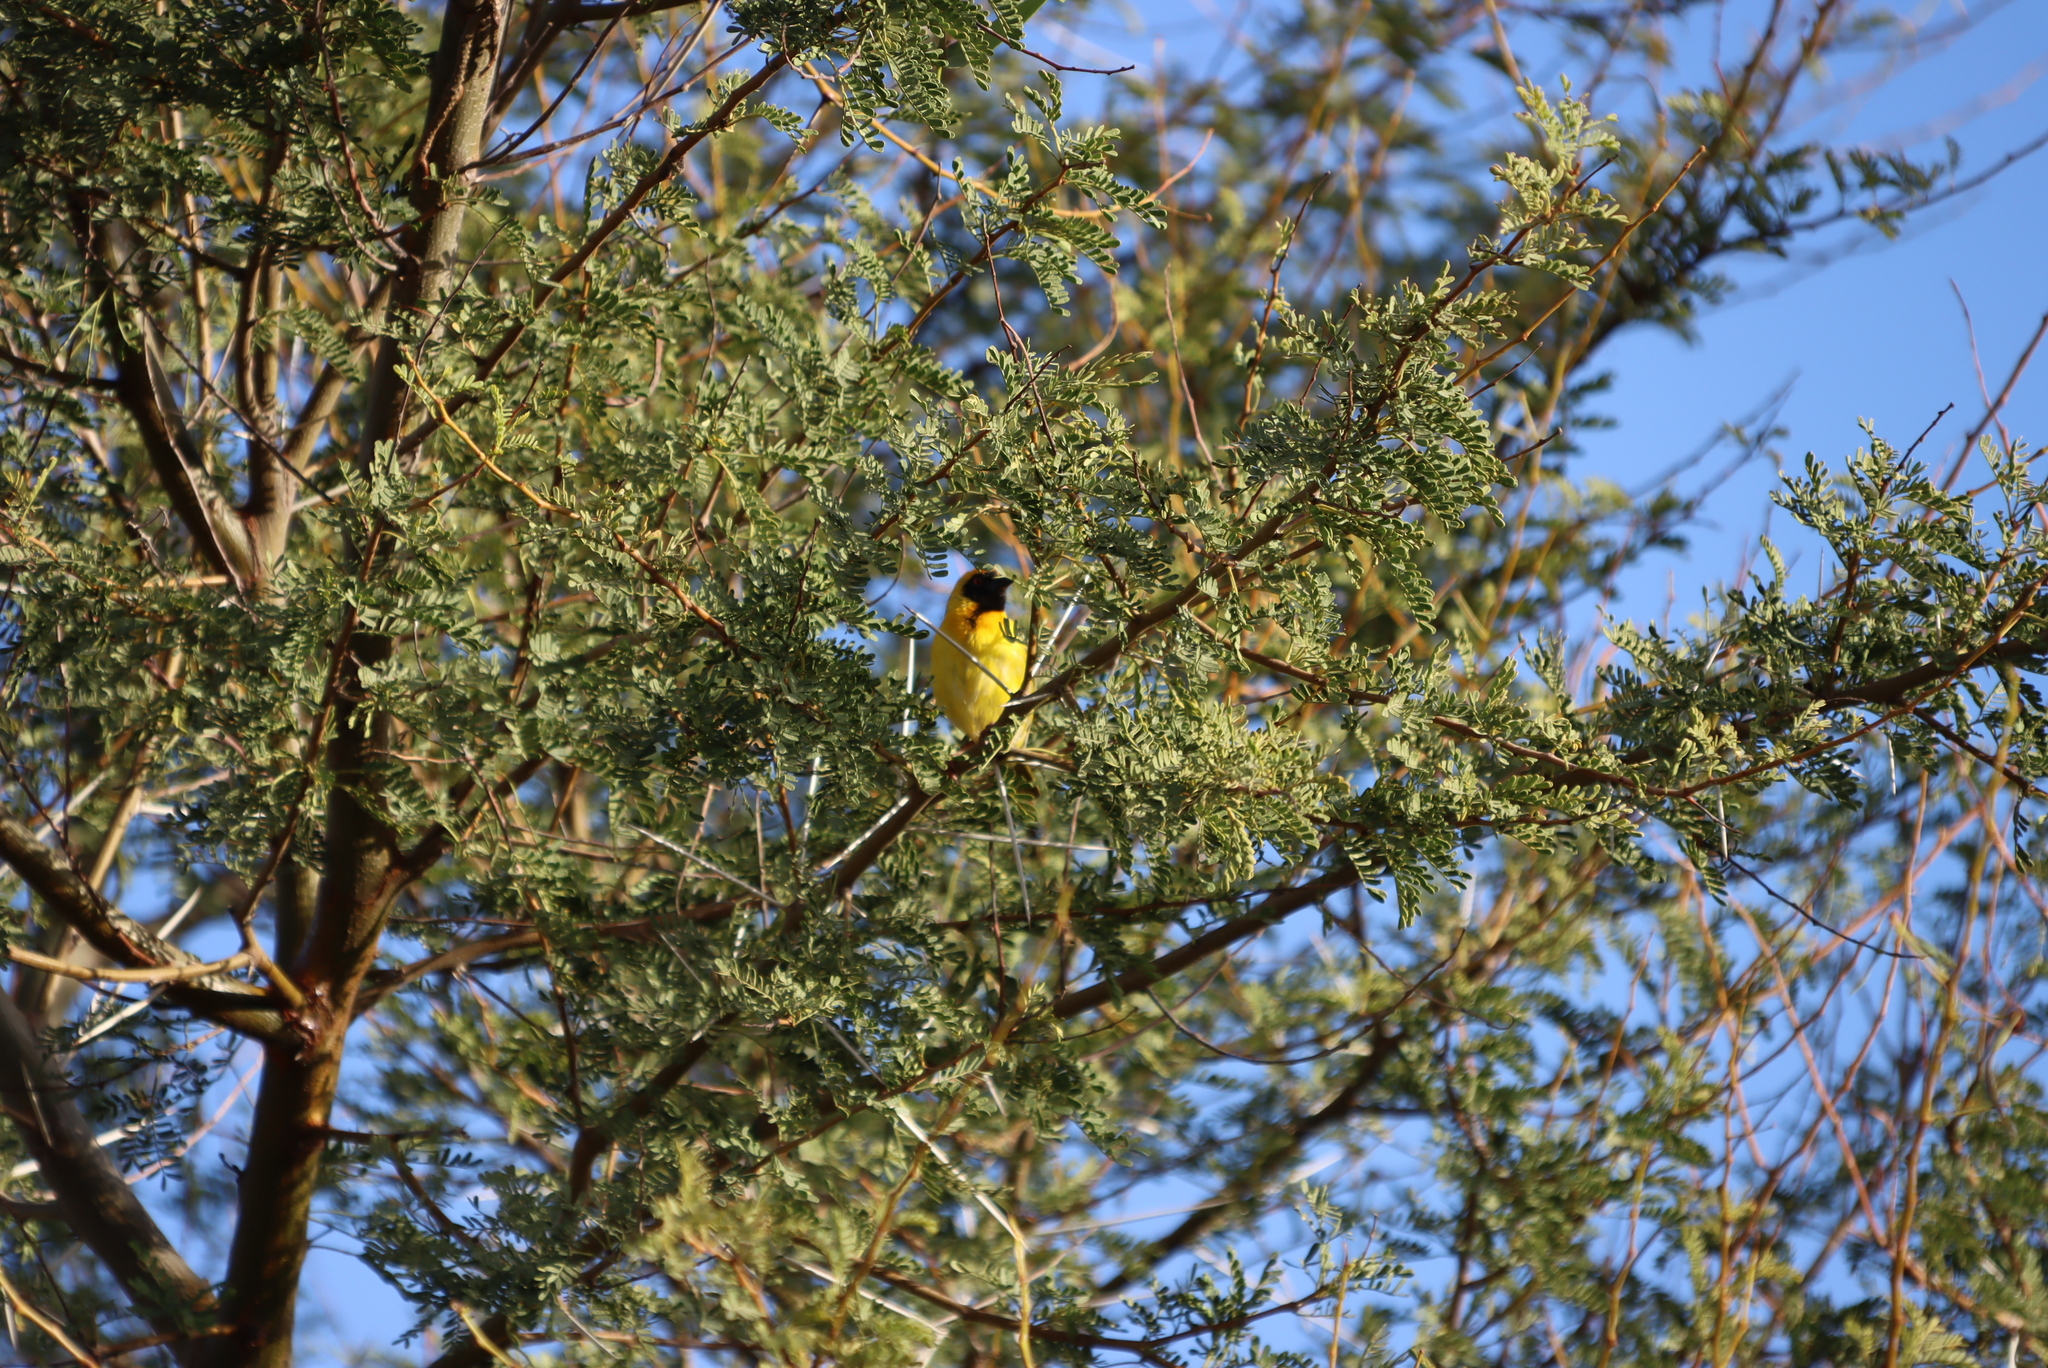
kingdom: Animalia
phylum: Chordata
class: Aves
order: Passeriformes
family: Ploceidae
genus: Ploceus
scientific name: Ploceus velatus
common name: Southern masked weaver
